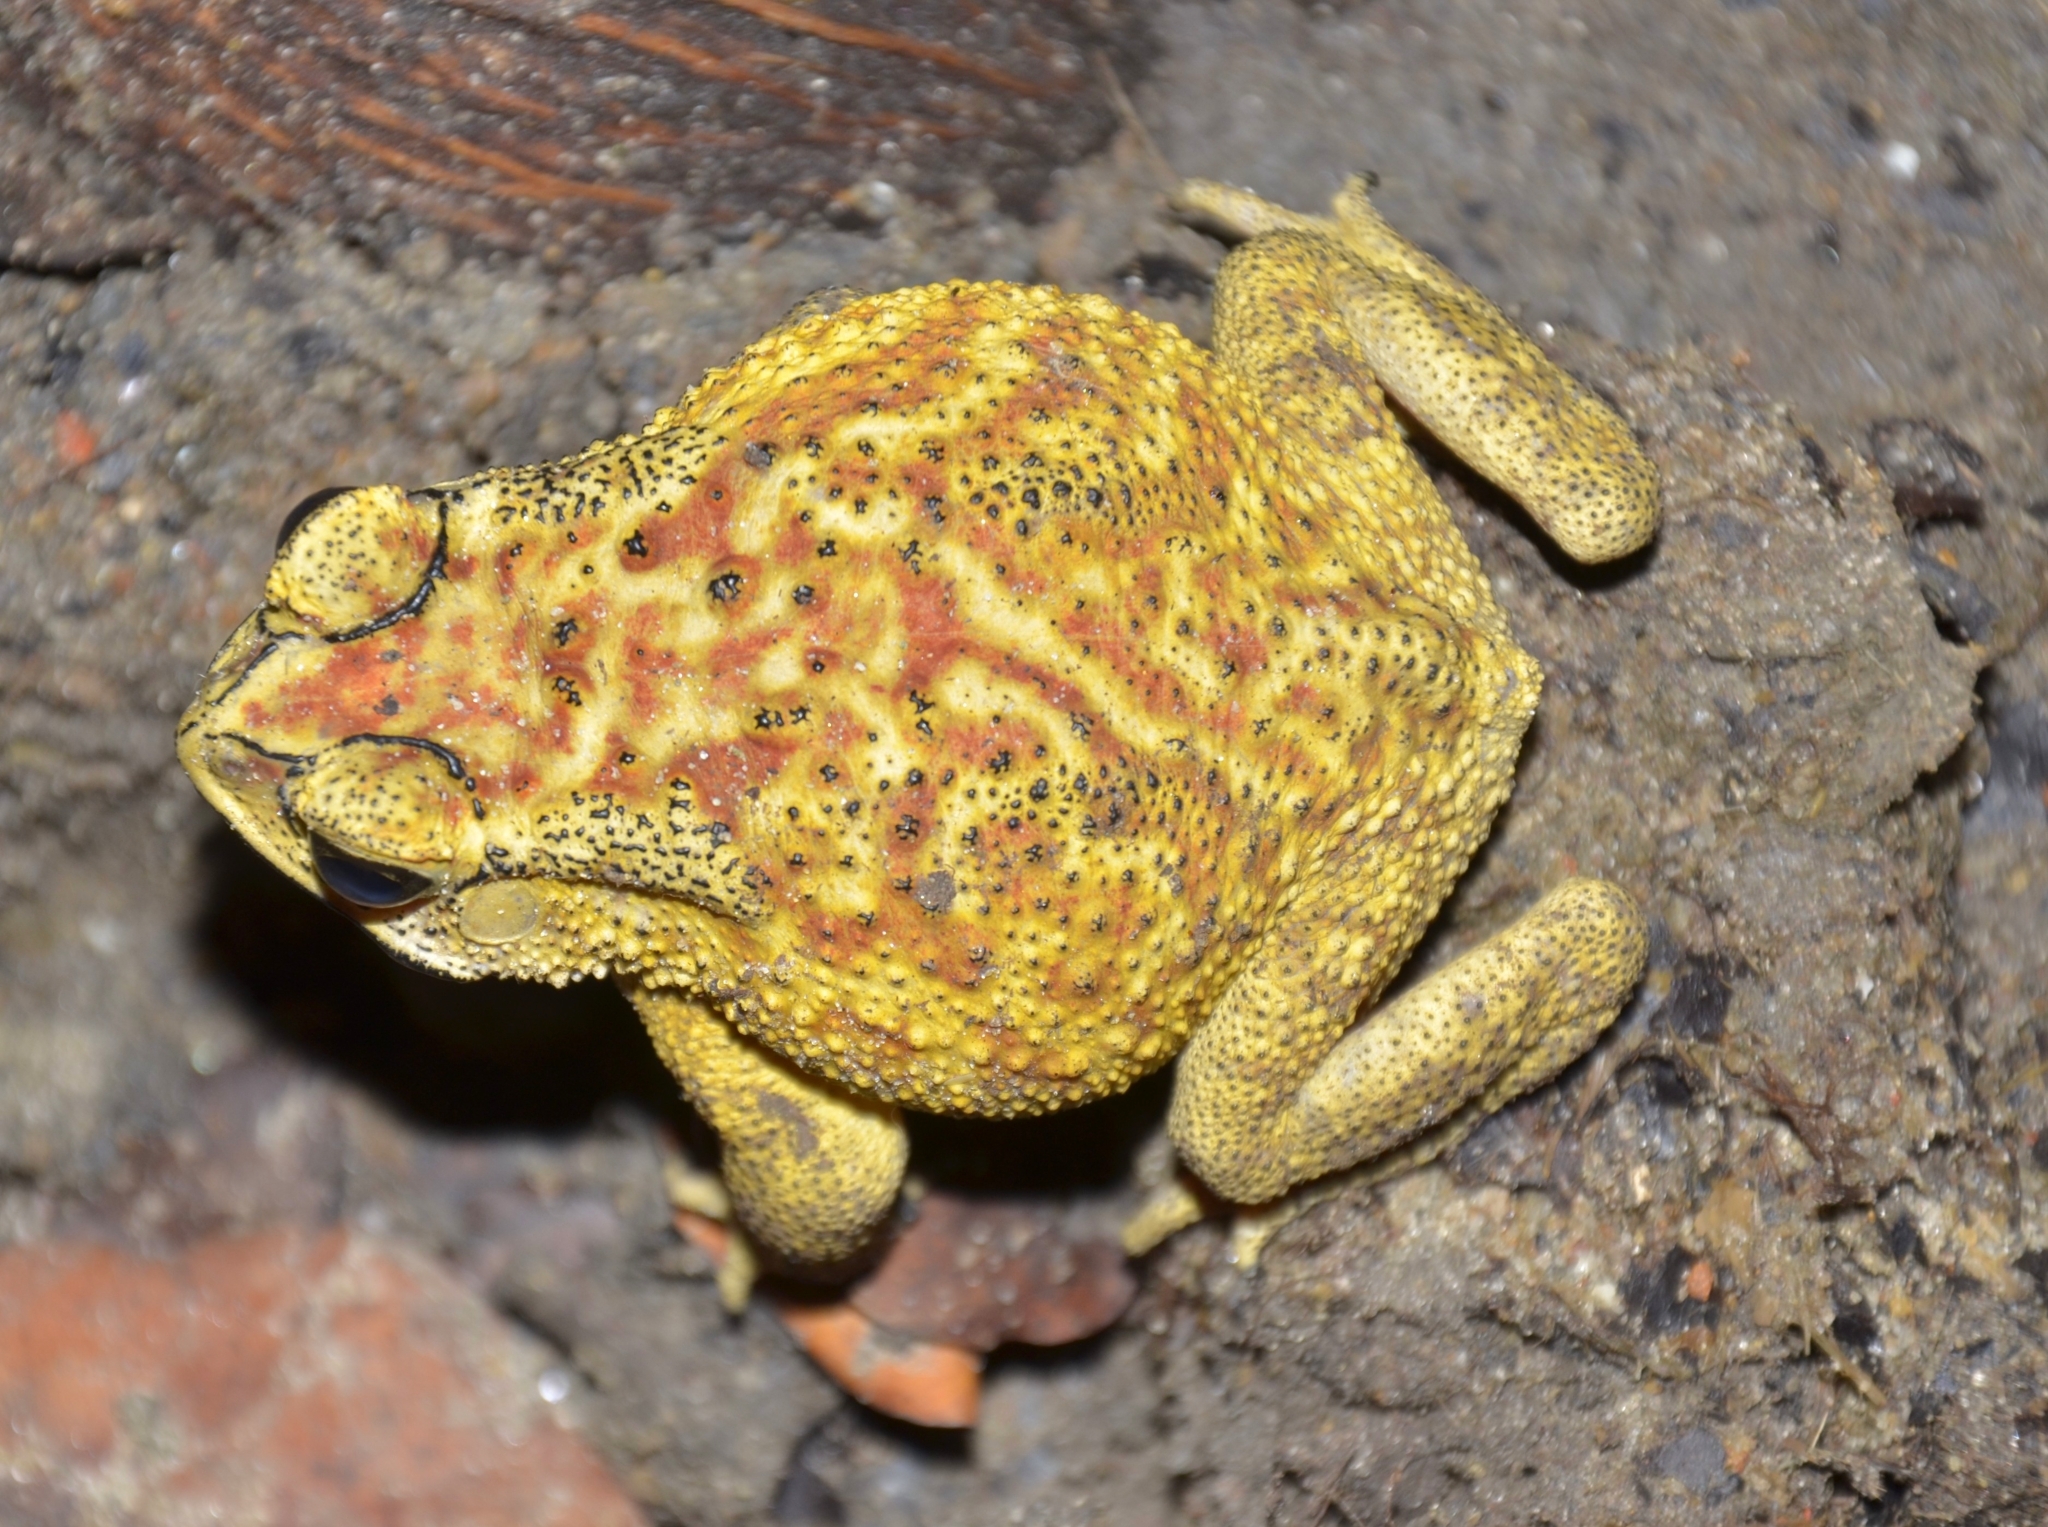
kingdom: Animalia
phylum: Chordata
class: Amphibia
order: Anura
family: Bufonidae
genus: Duttaphrynus
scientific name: Duttaphrynus melanostictus
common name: Common sunda toad
